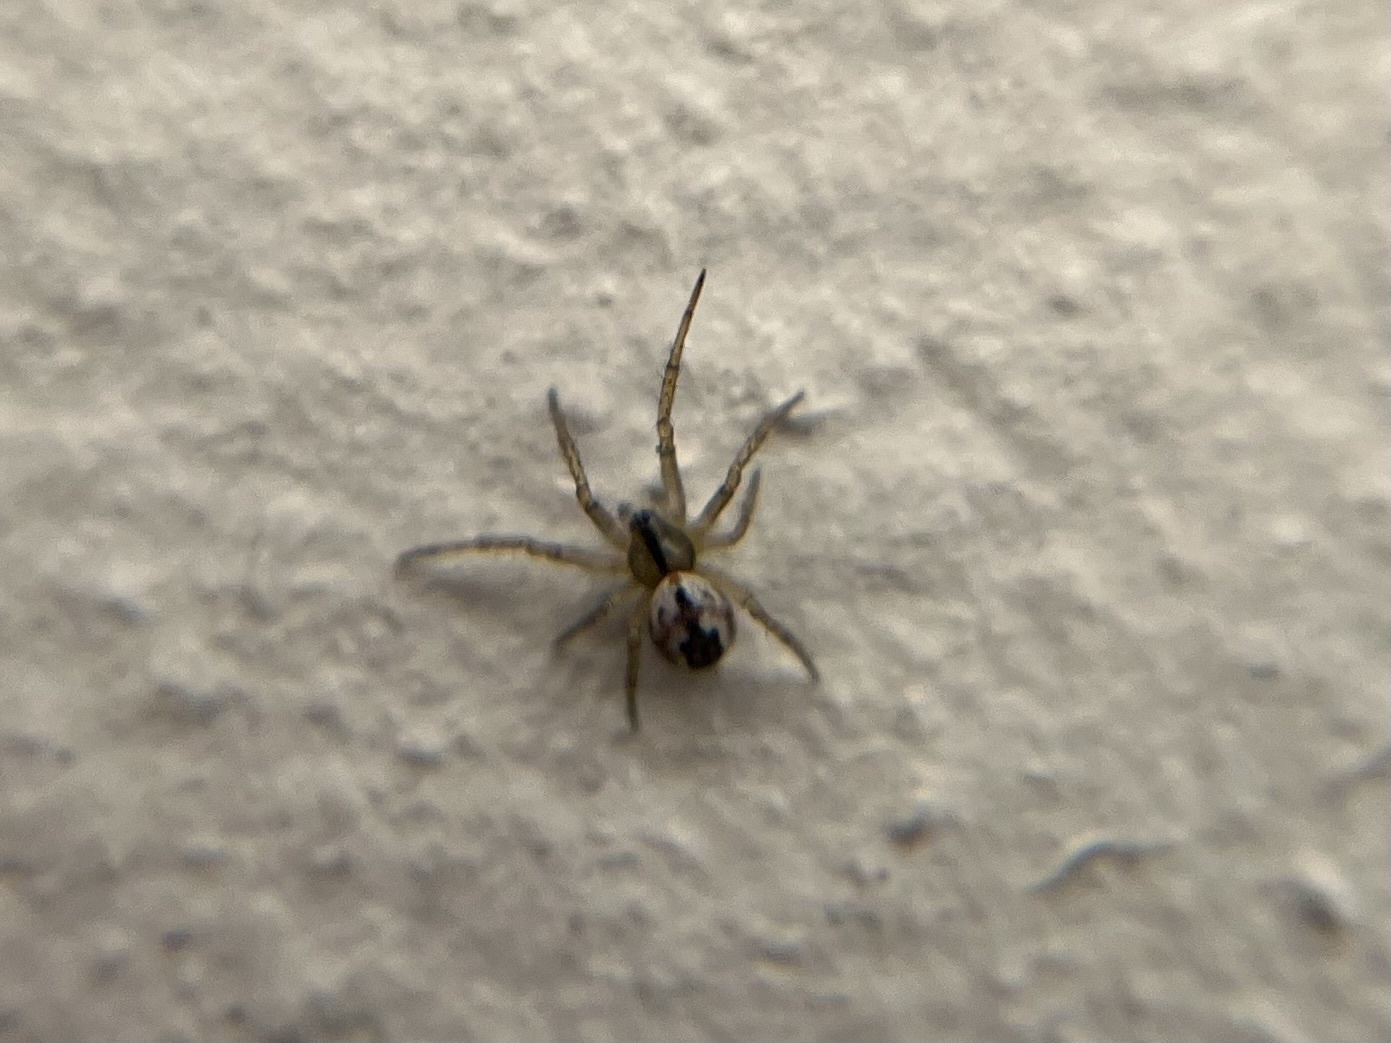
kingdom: Animalia
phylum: Arthropoda
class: Arachnida
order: Araneae
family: Araneidae
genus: Mangora
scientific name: Mangora acalypha
